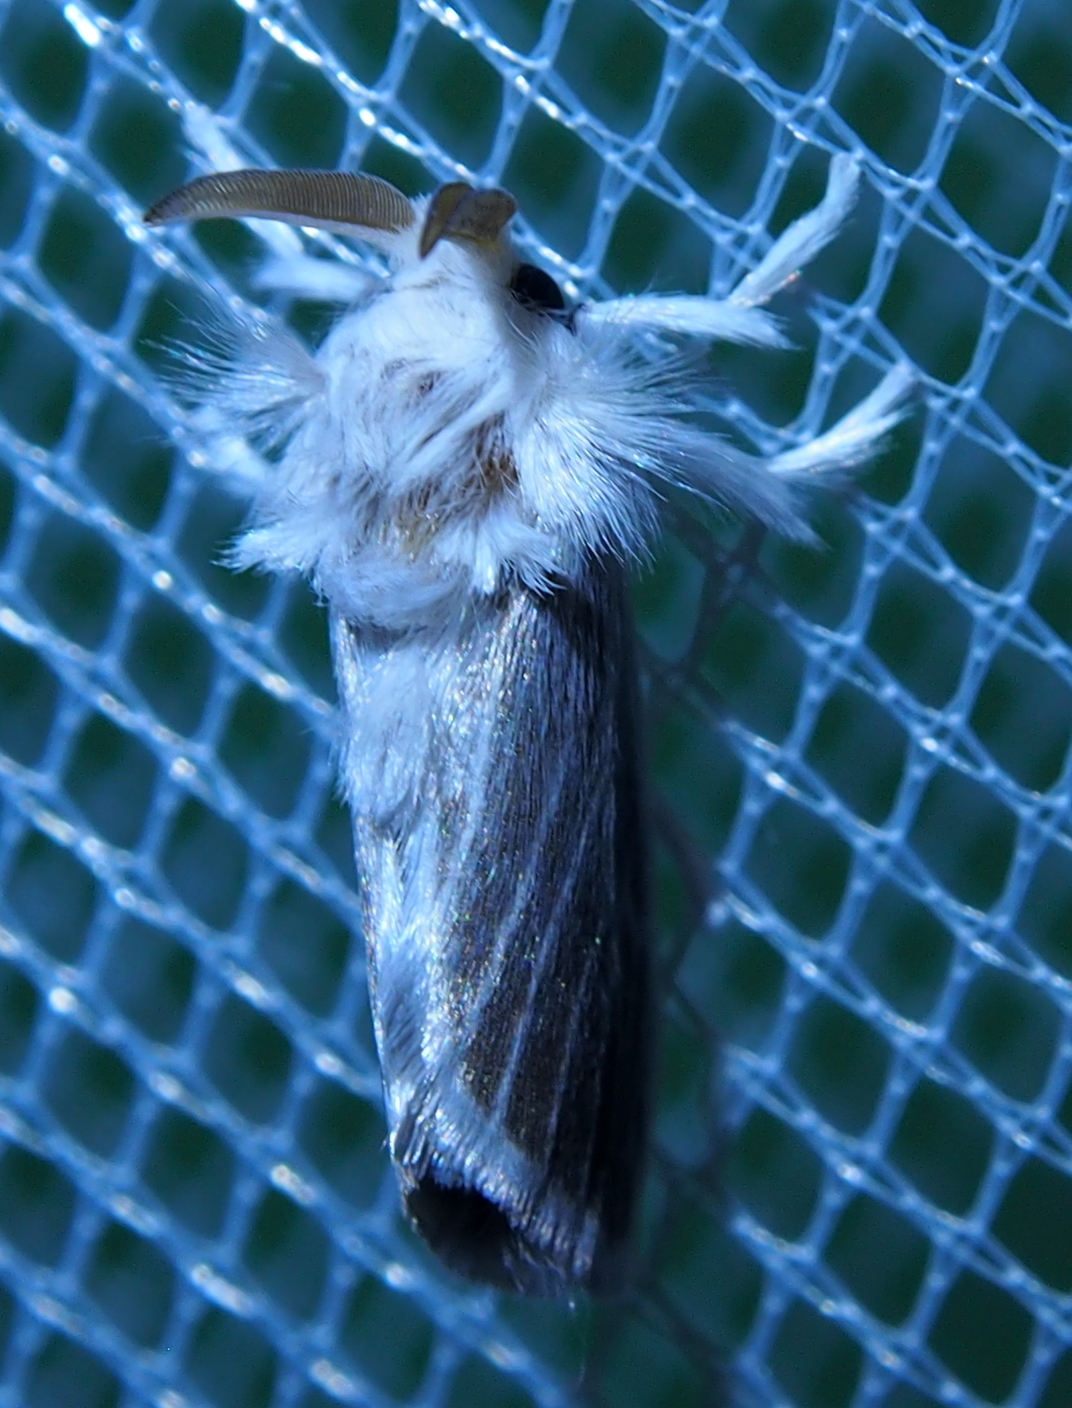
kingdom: Animalia
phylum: Arthropoda
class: Insecta
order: Lepidoptera
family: Megalopygidae
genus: Repnoa
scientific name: Repnoa imparilis
